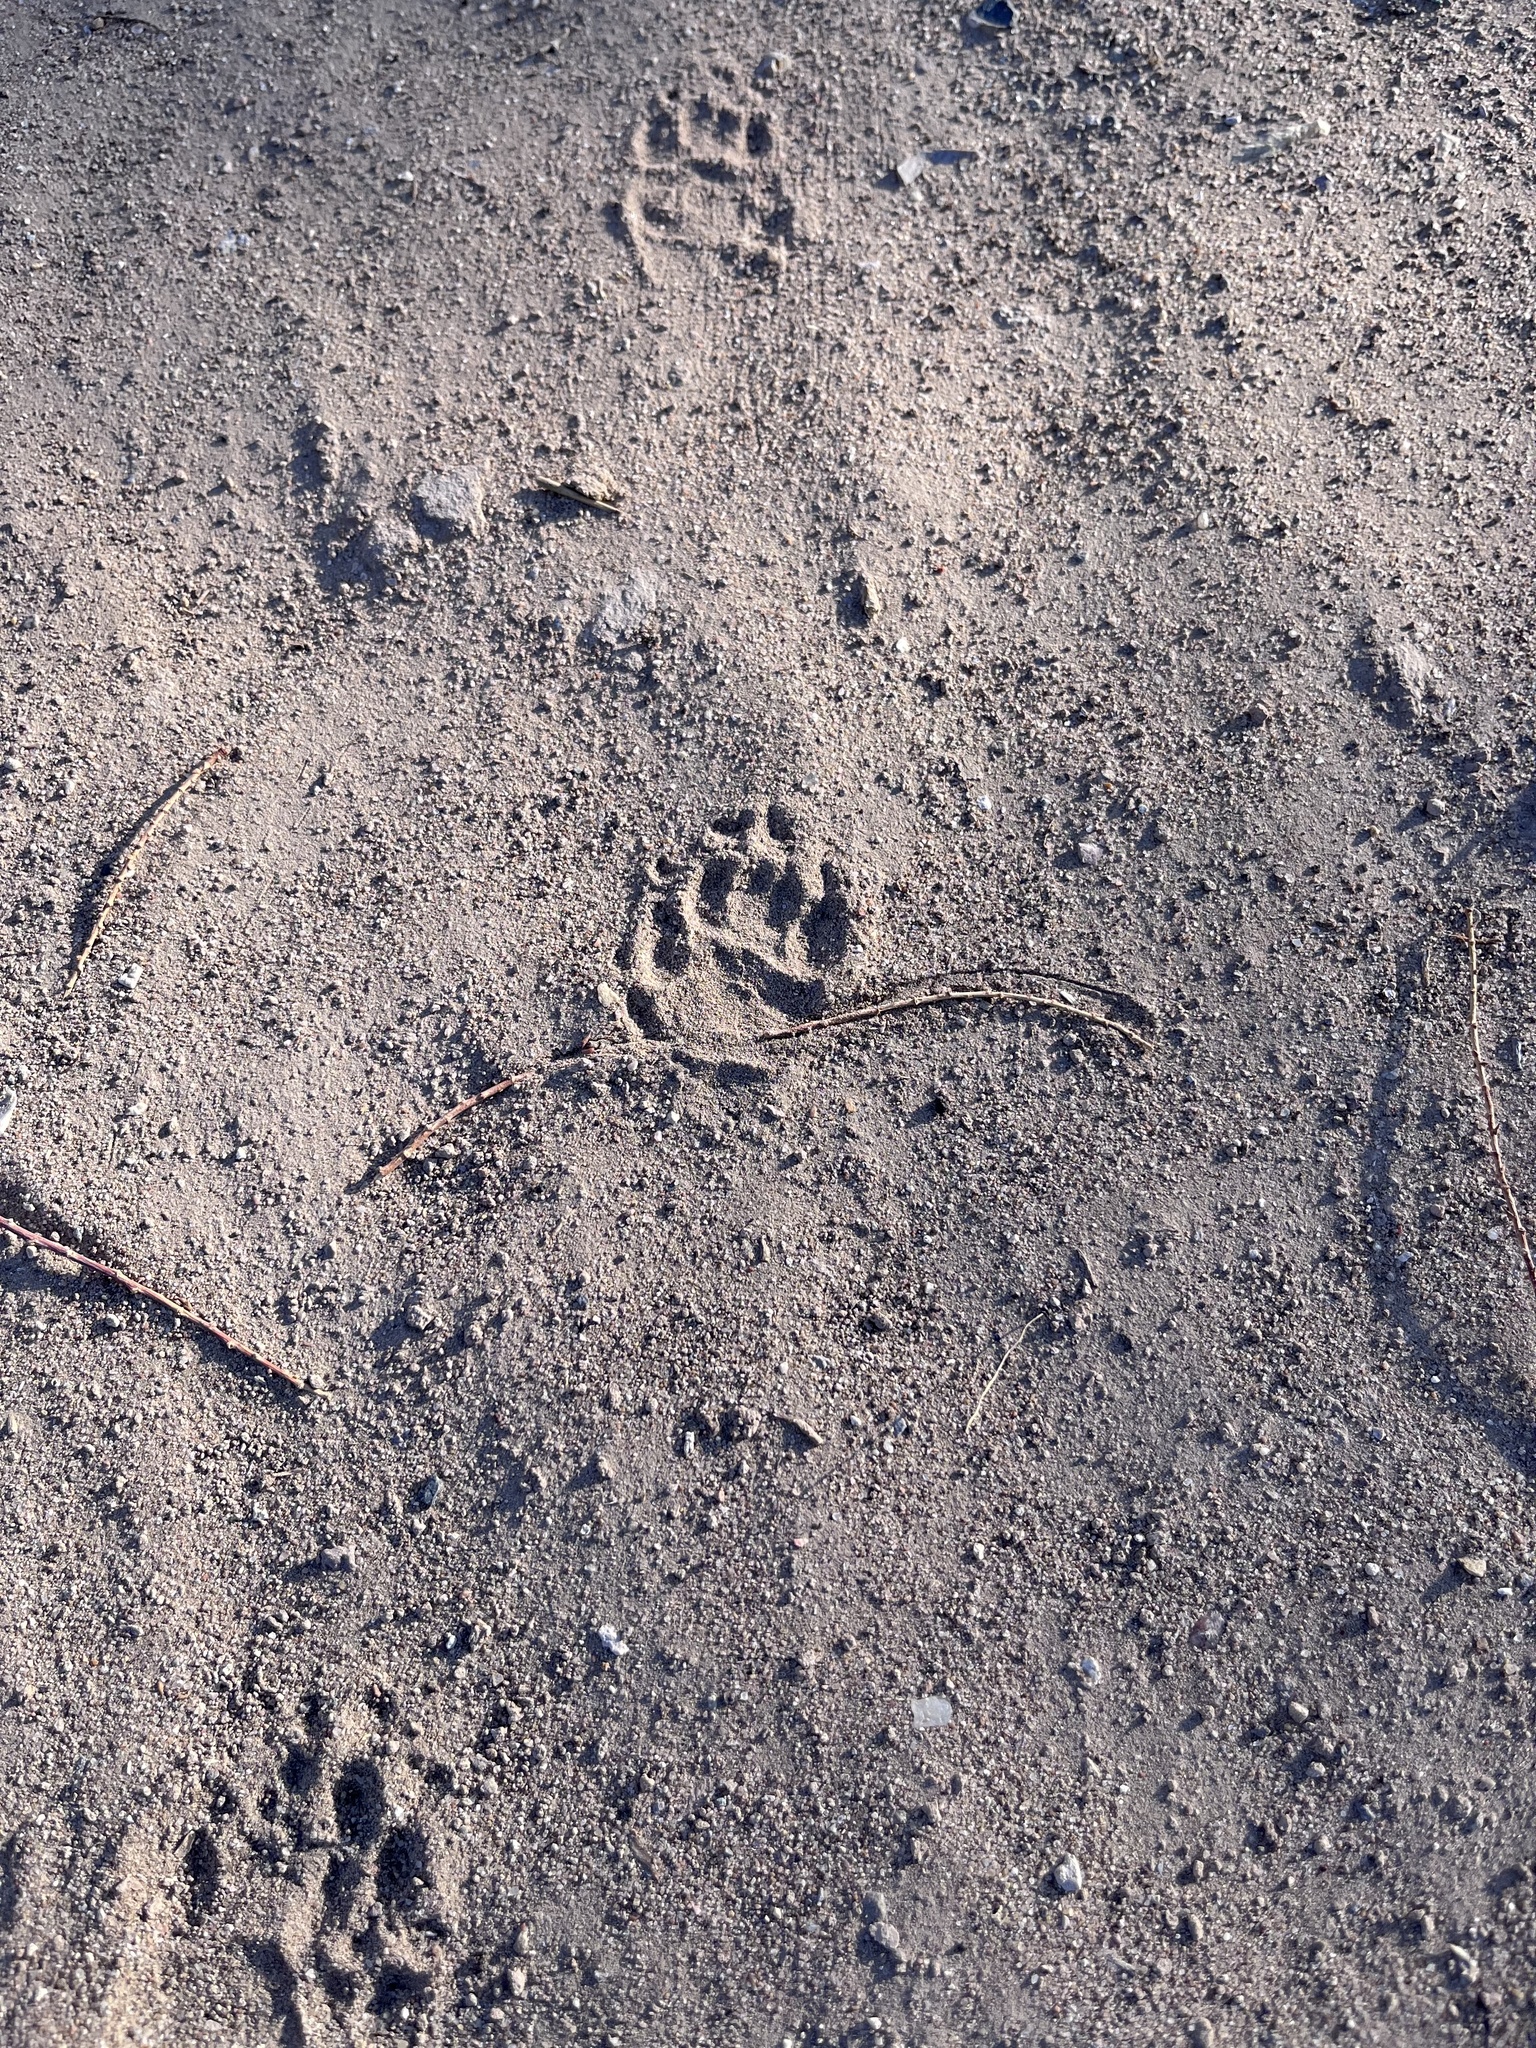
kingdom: Animalia
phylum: Chordata
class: Mammalia
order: Carnivora
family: Mephitidae
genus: Mephitis
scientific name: Mephitis mephitis
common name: Striped skunk
